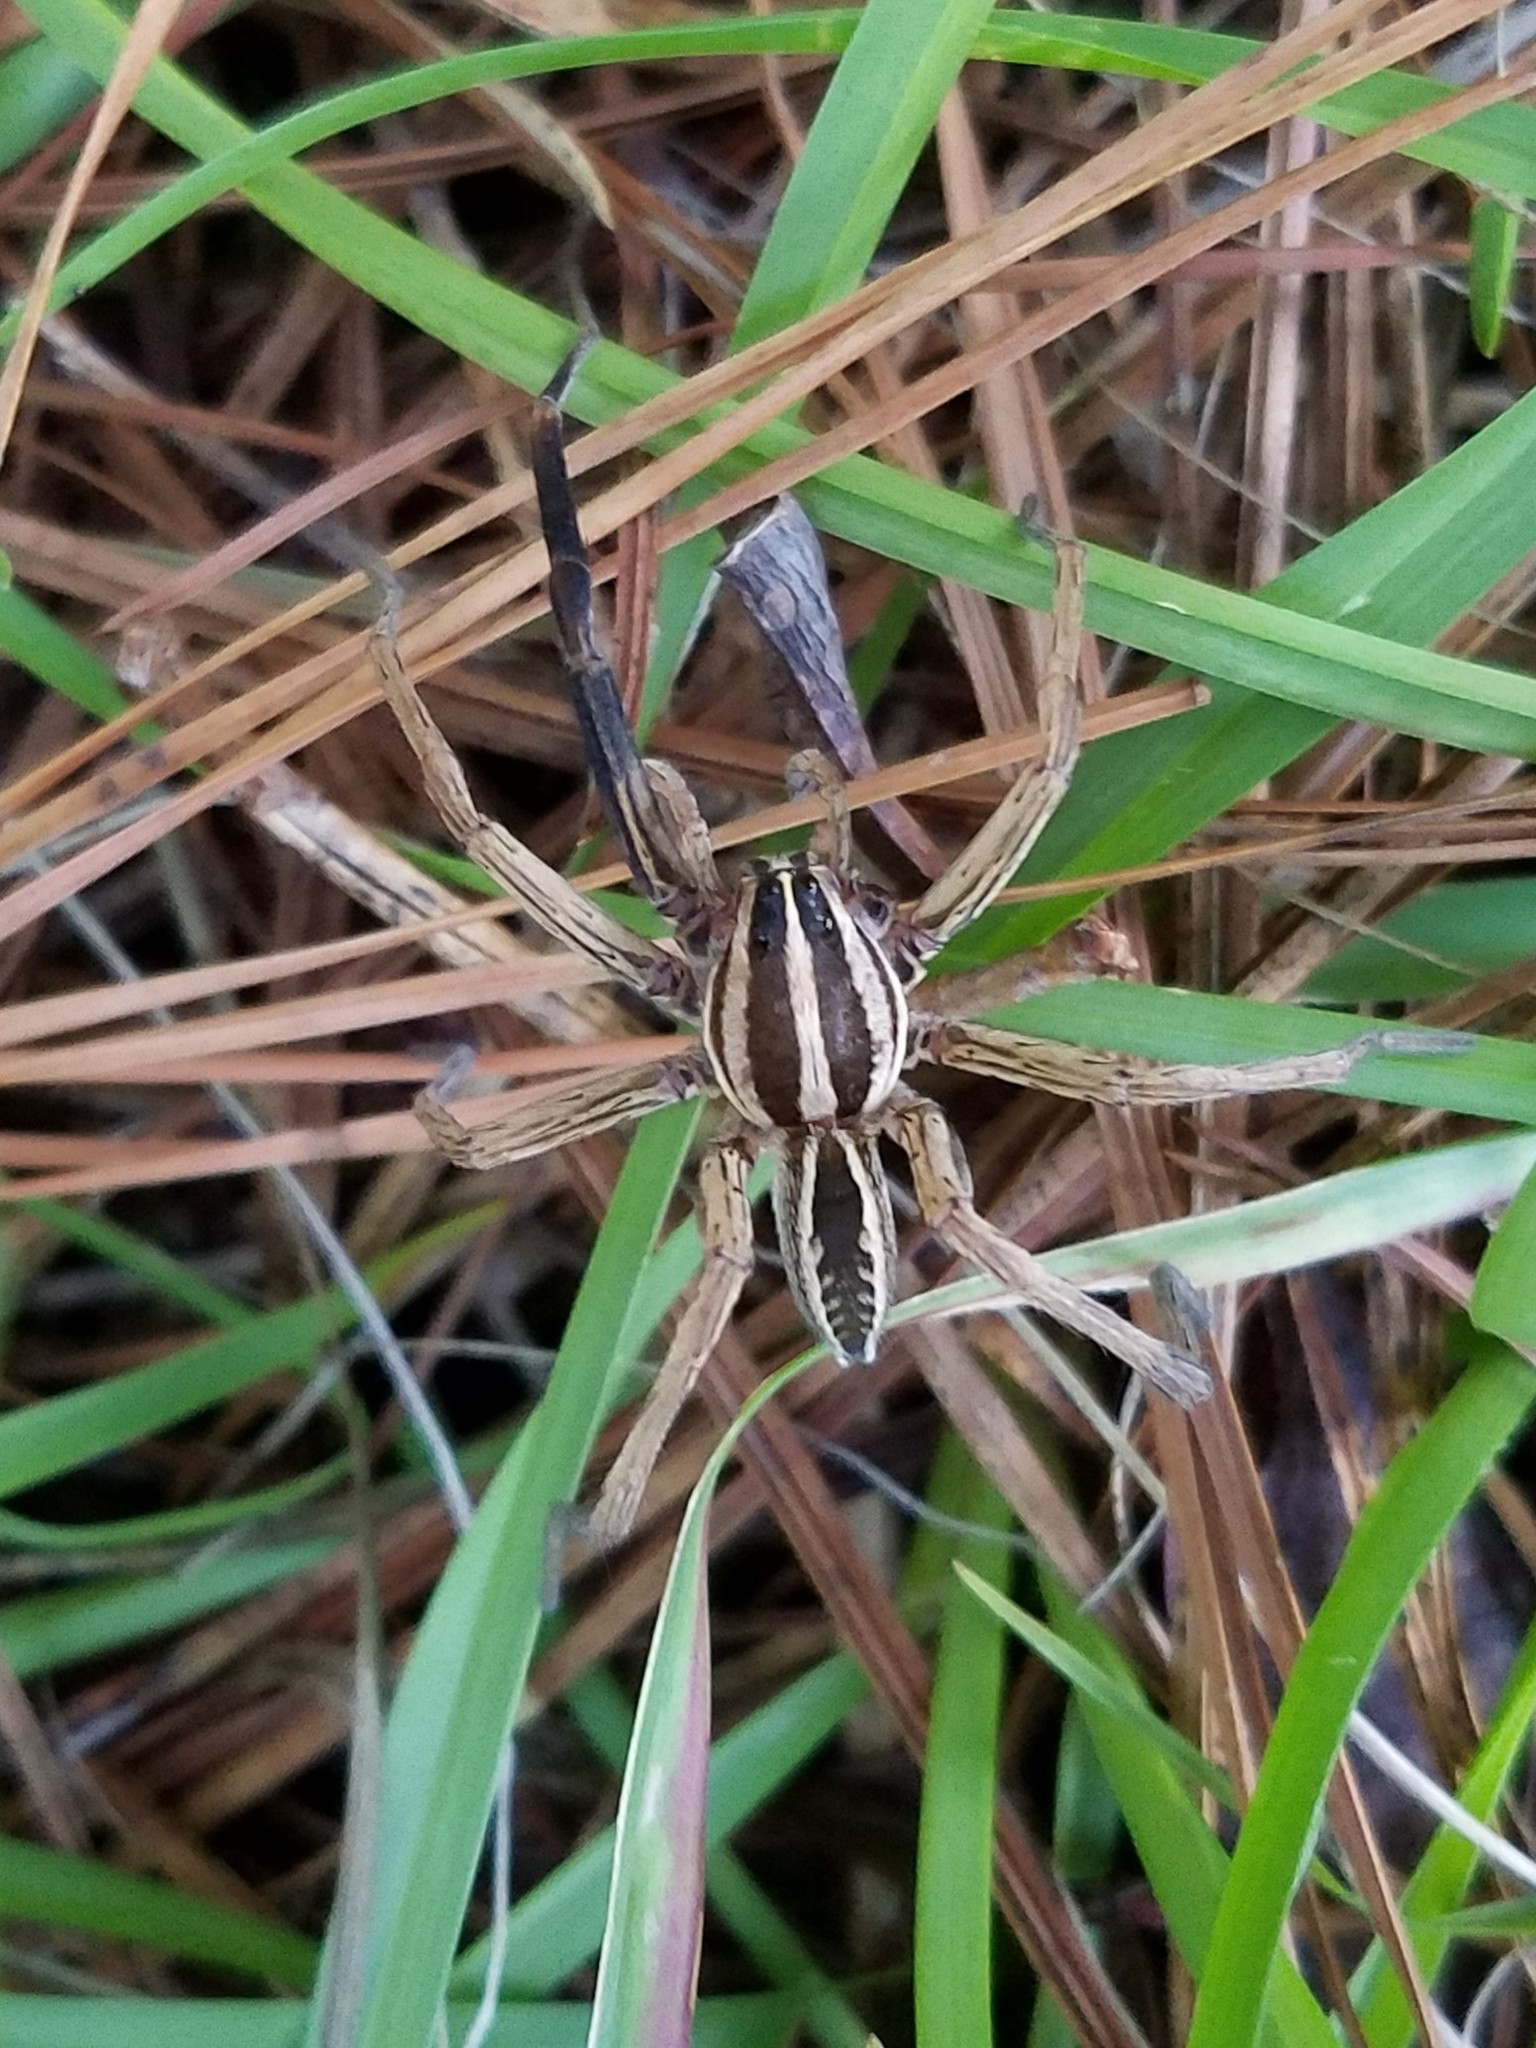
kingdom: Animalia
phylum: Arthropoda
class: Arachnida
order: Araneae
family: Lycosidae
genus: Rabidosa
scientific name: Rabidosa rabida
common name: Rabid wolf spider
